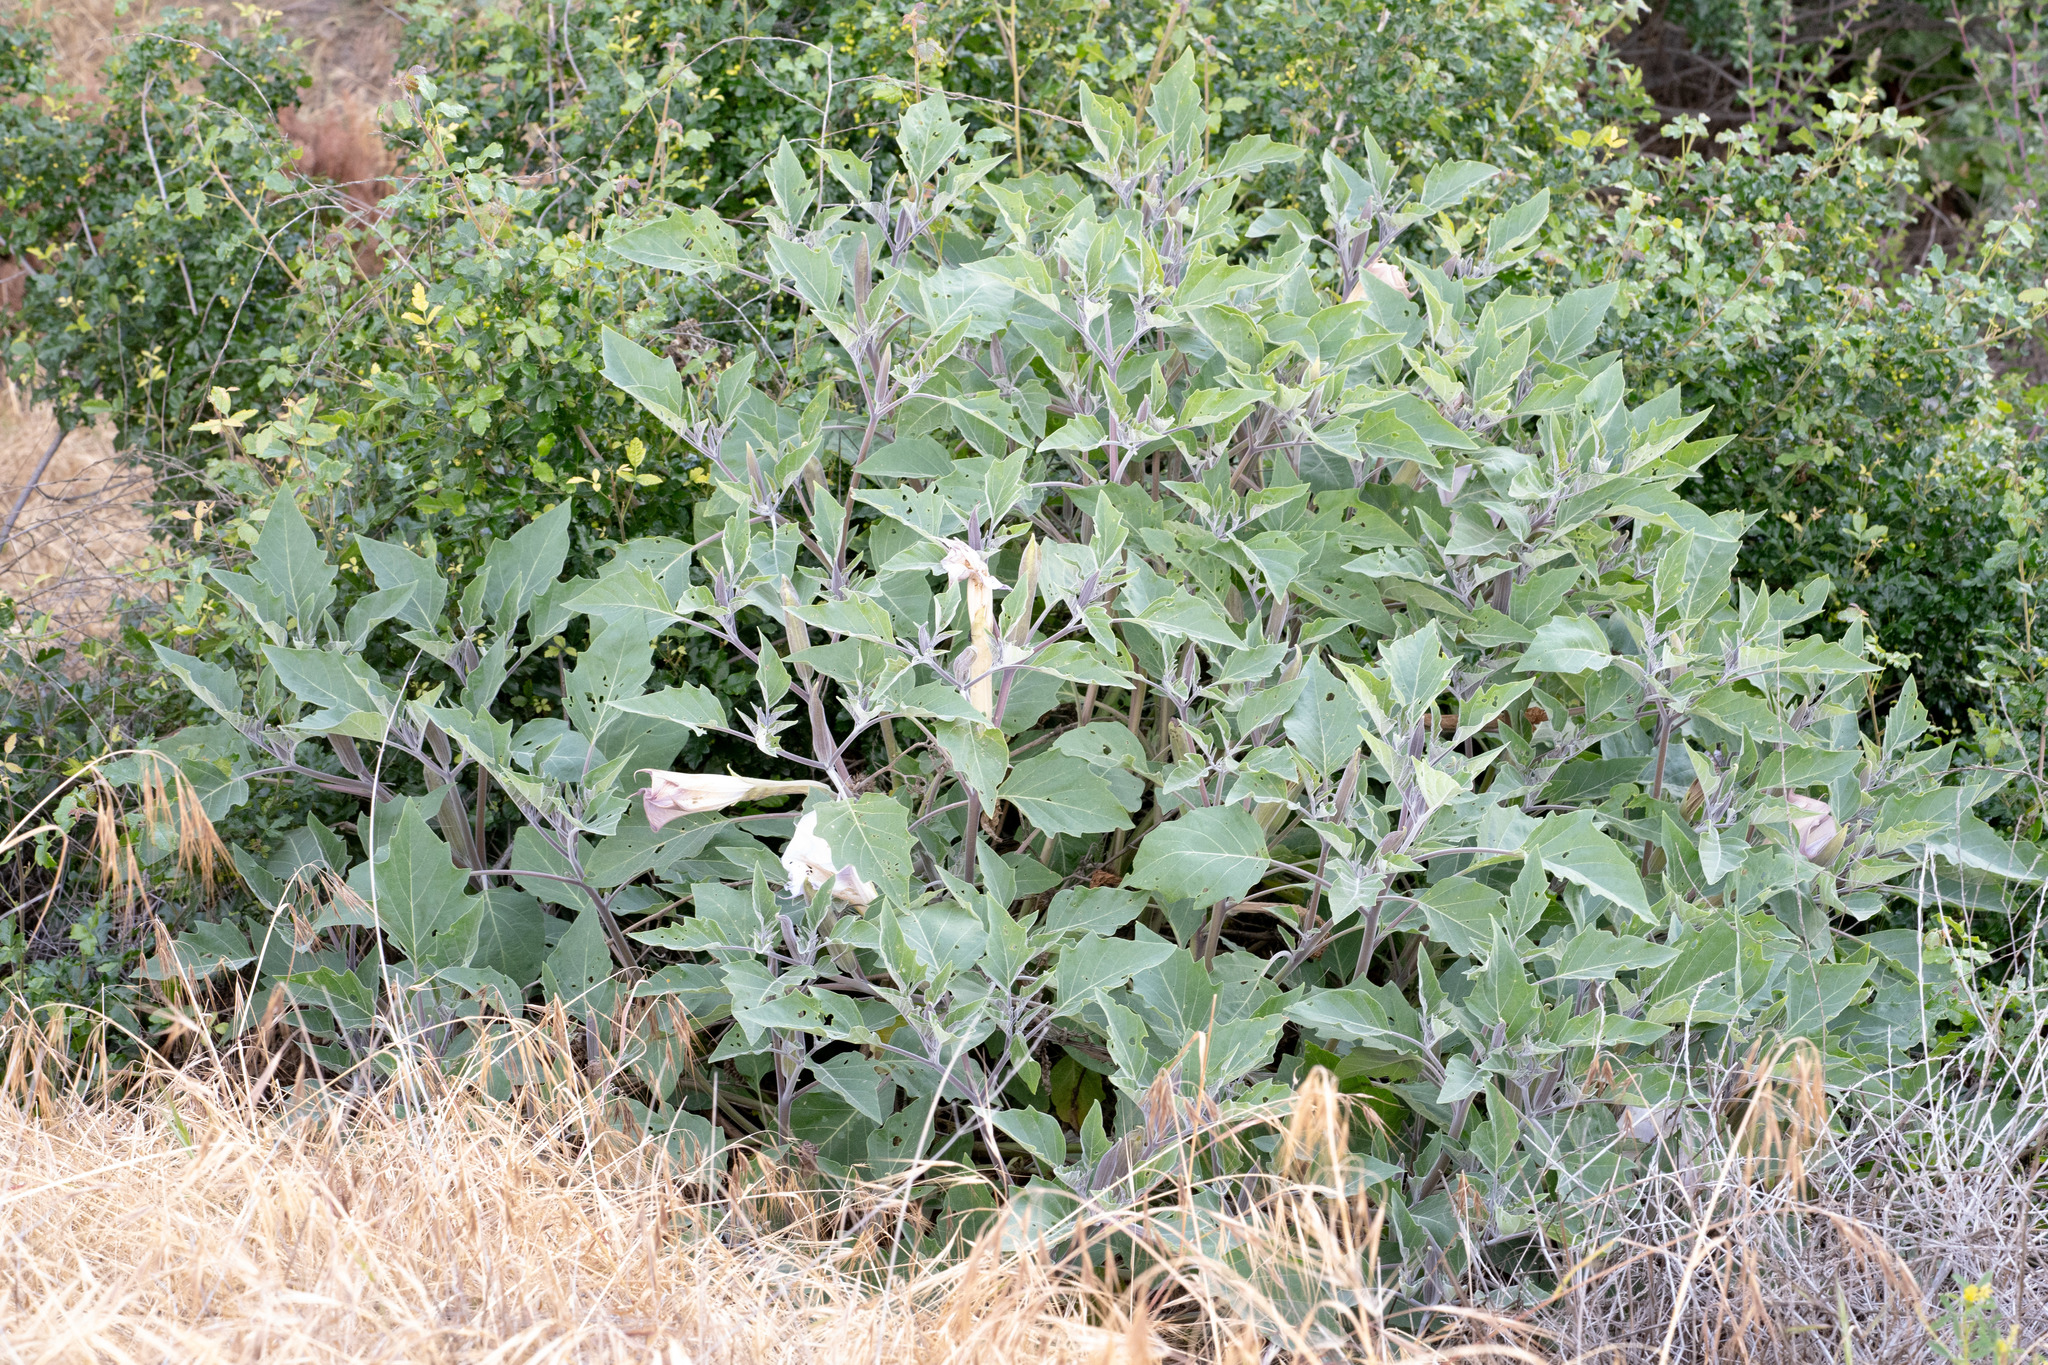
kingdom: Plantae
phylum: Tracheophyta
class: Magnoliopsida
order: Solanales
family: Solanaceae
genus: Datura
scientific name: Datura wrightii
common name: Sacred thorn-apple
